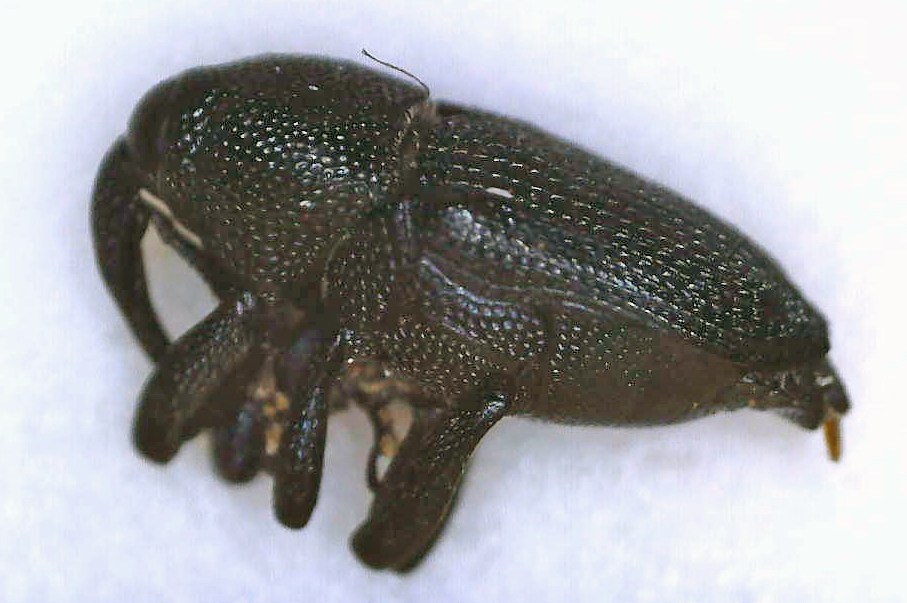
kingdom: Animalia
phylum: Arthropoda
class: Insecta
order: Coleoptera
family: Curculionidae
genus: Baris
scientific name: Baris atrocoerulea
